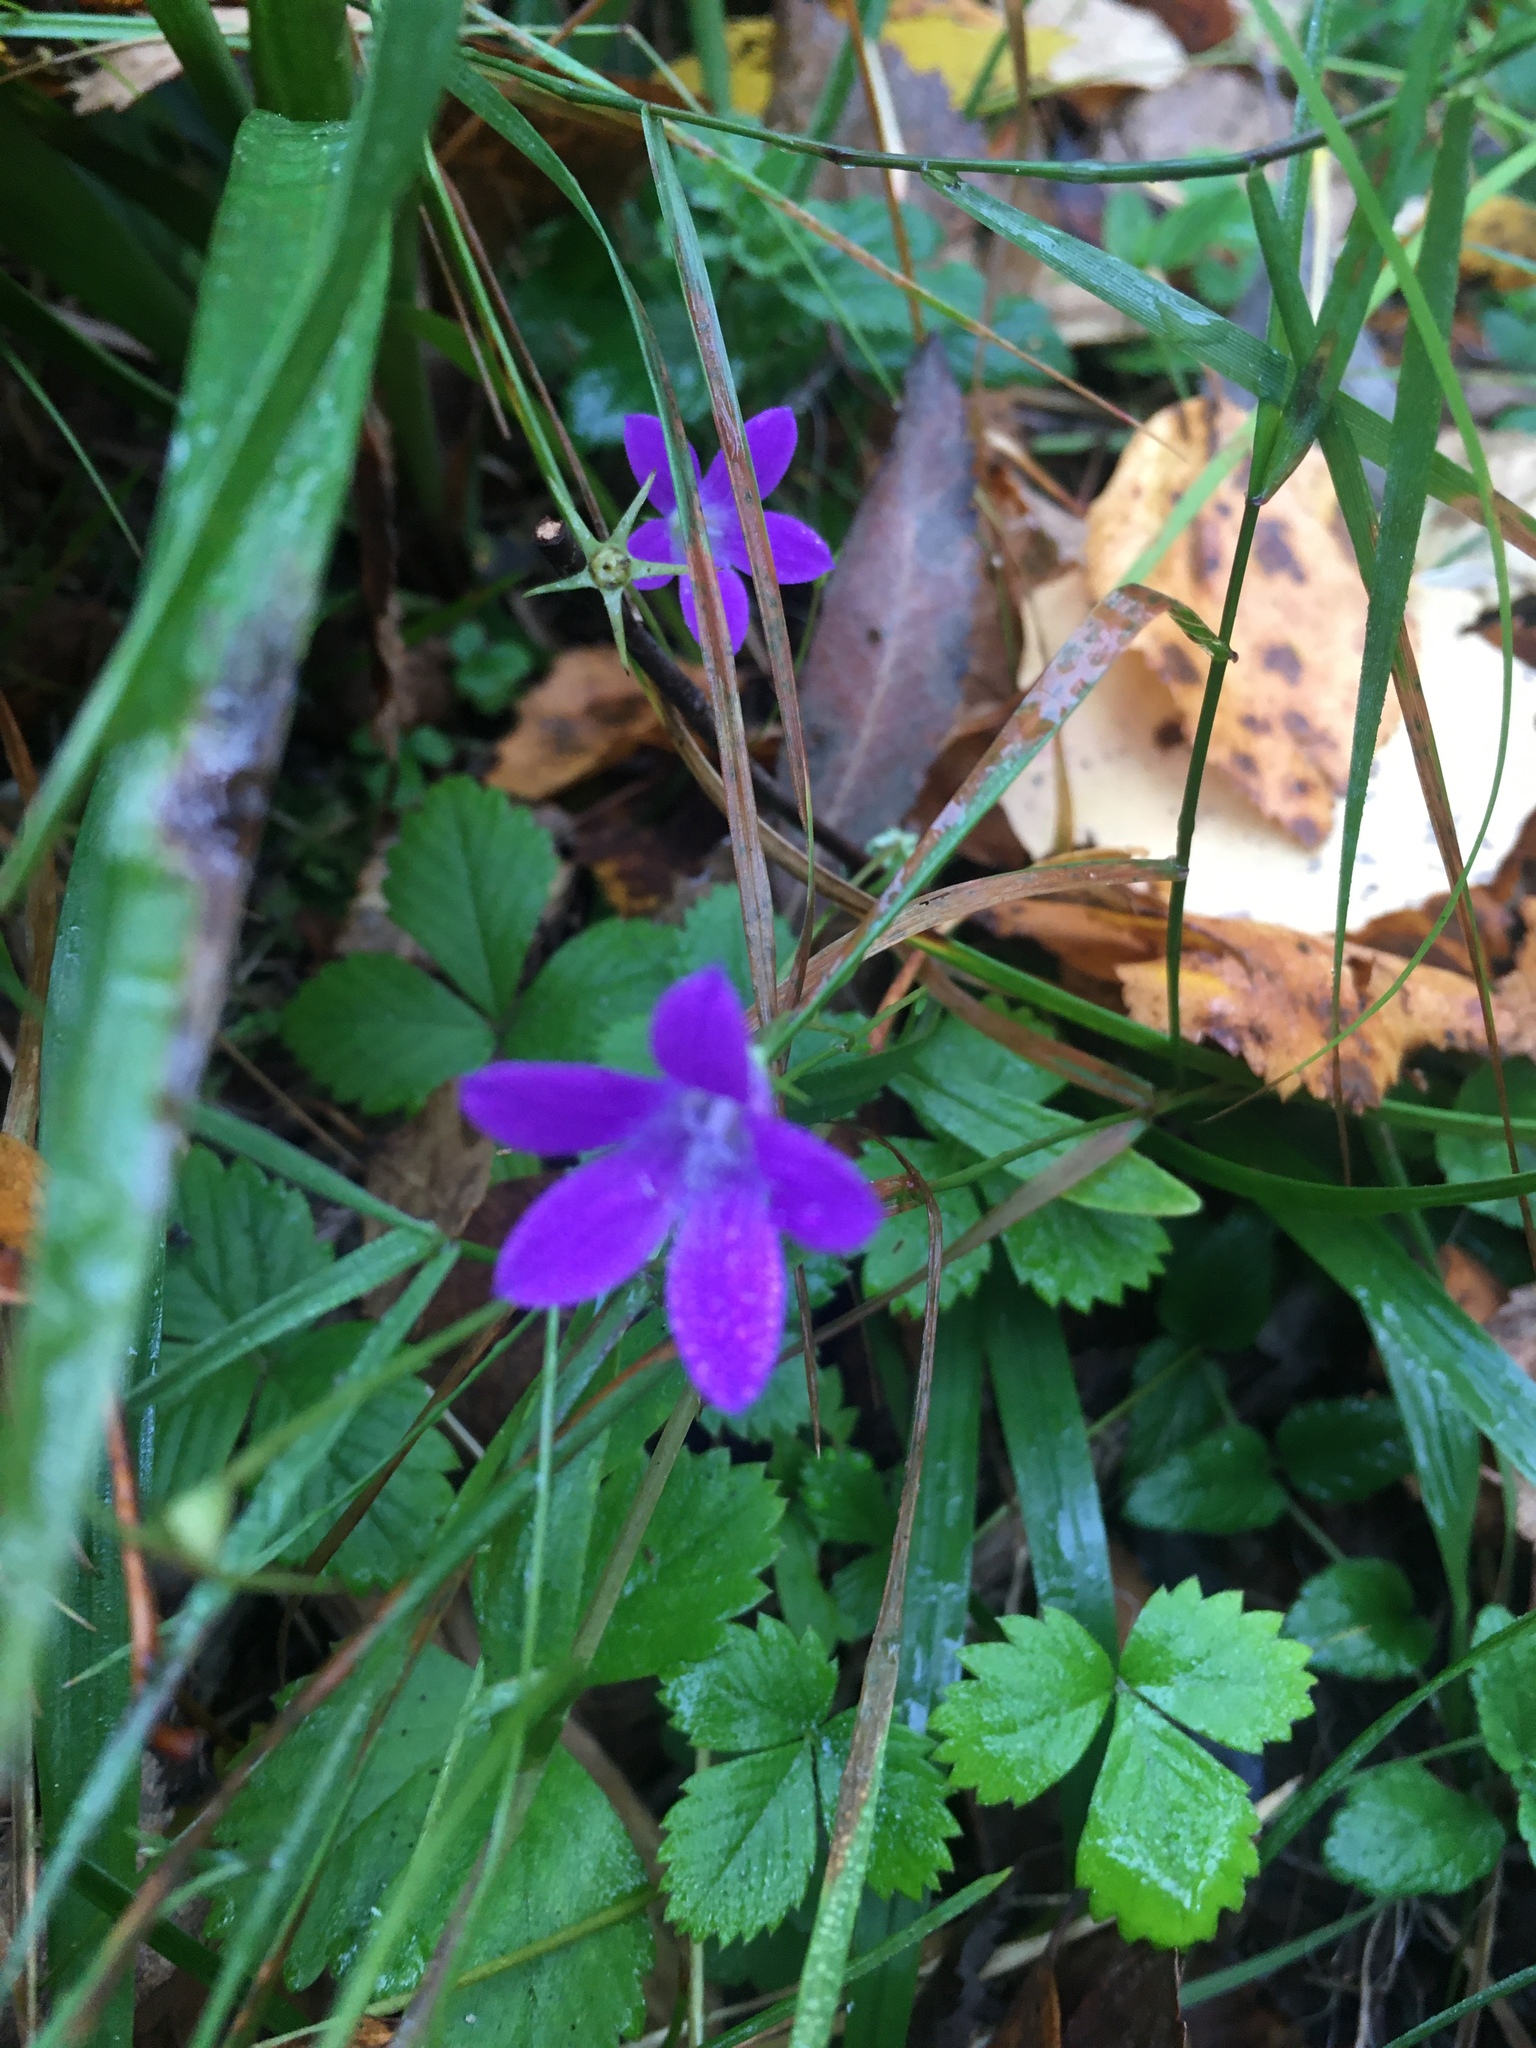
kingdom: Plantae
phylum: Tracheophyta
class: Magnoliopsida
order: Asterales
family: Campanulaceae
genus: Campanula
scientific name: Campanula patula
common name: Spreading bellflower
